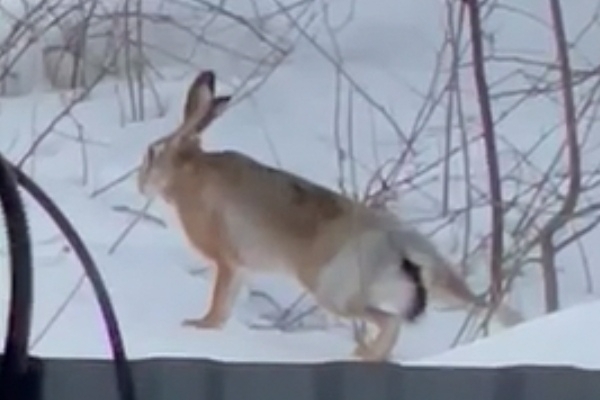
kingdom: Animalia
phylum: Chordata
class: Mammalia
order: Lagomorpha
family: Leporidae
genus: Lepus
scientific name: Lepus europaeus
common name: European hare
